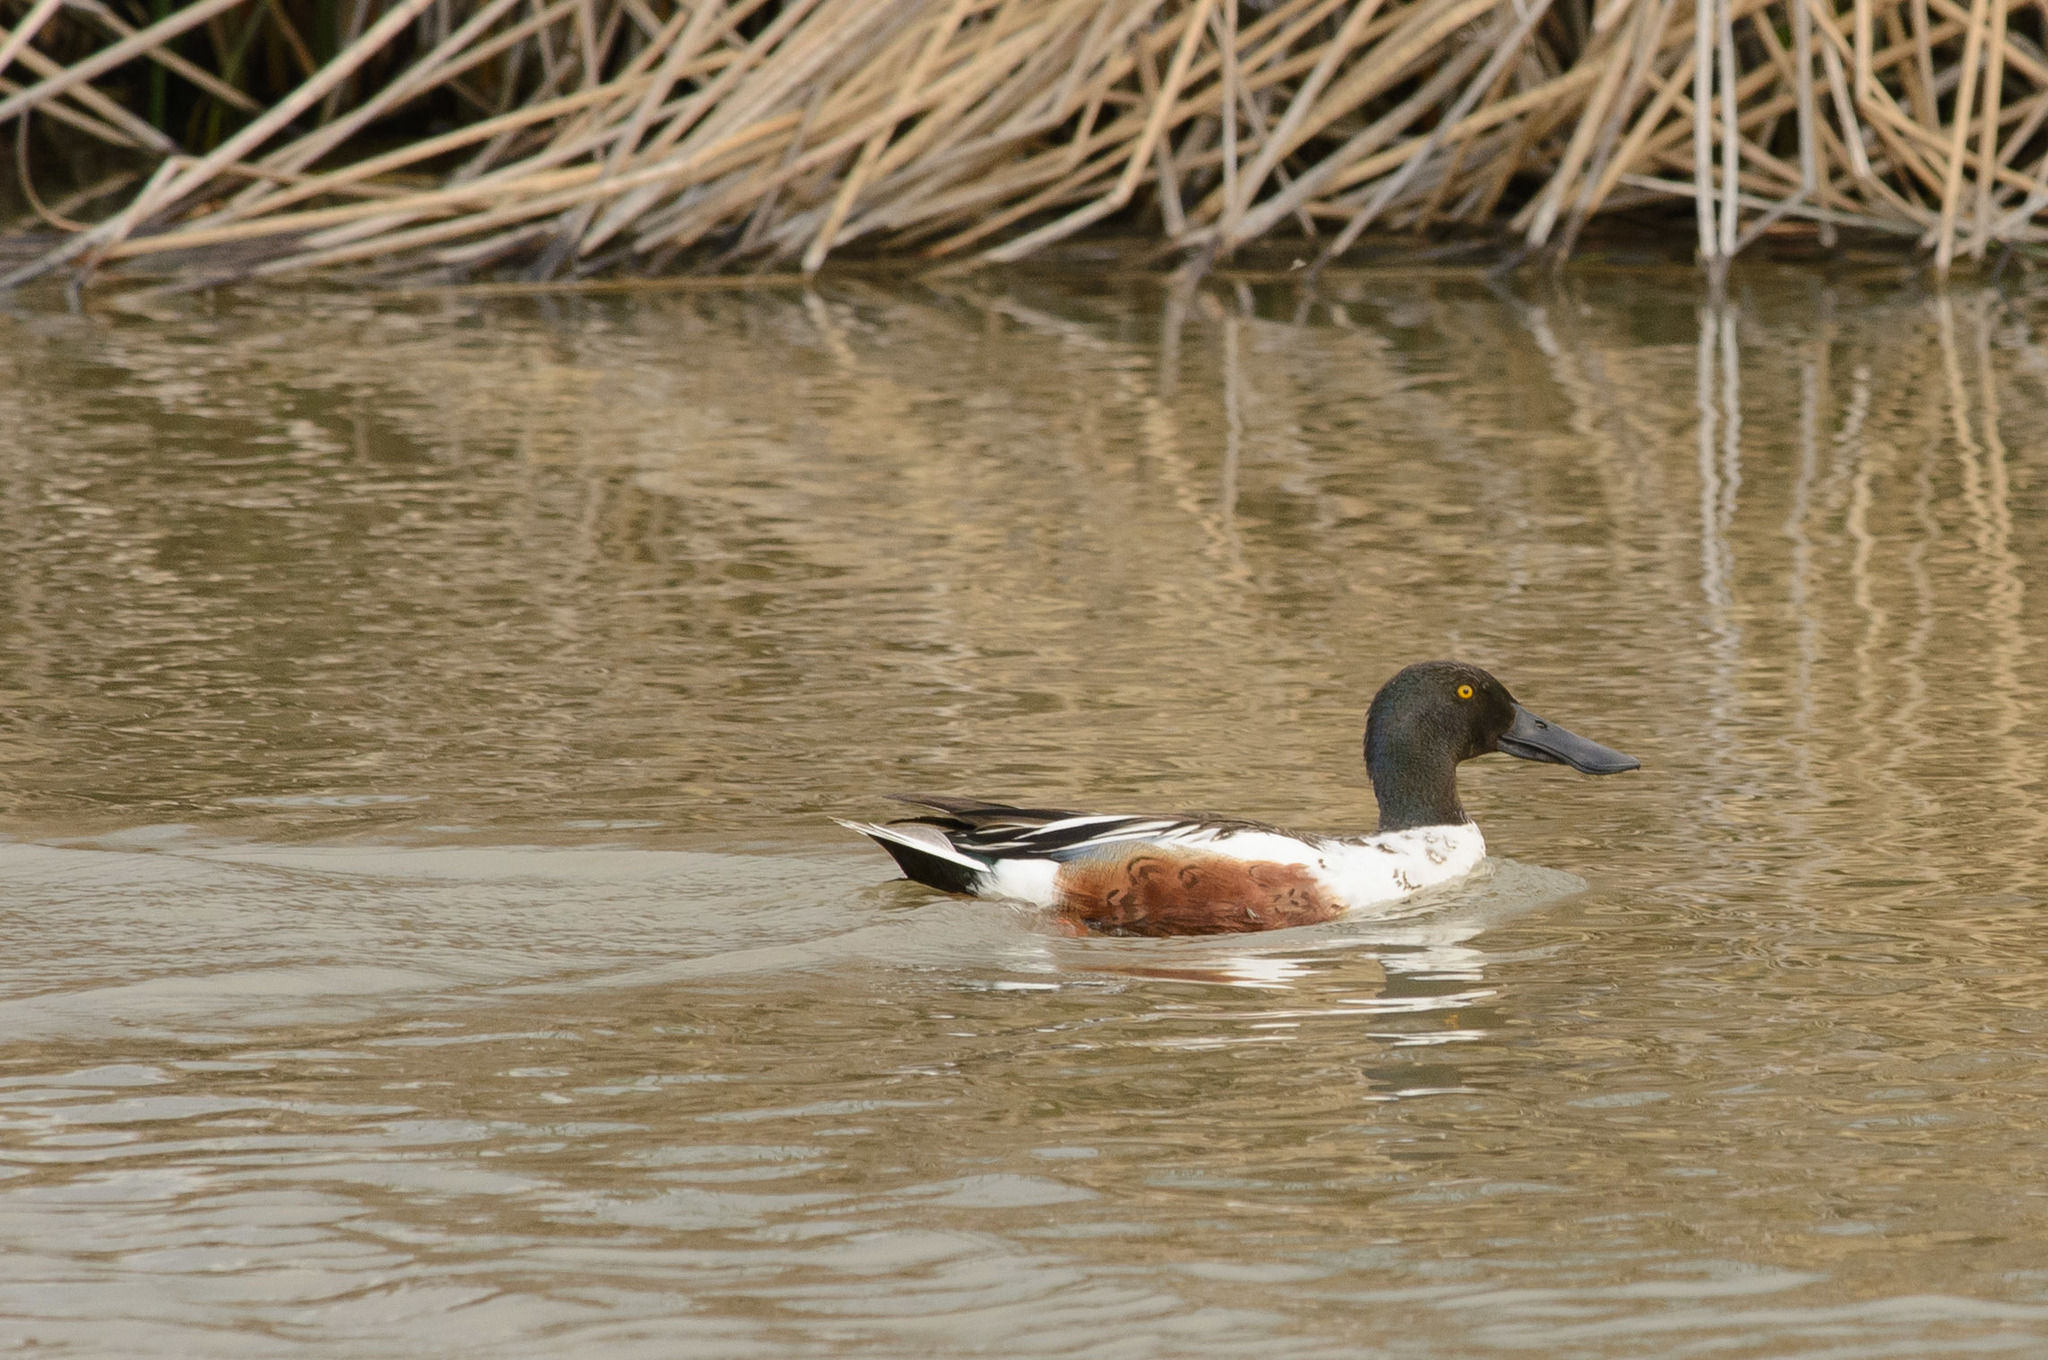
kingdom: Animalia
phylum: Chordata
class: Aves
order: Anseriformes
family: Anatidae
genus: Spatula
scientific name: Spatula clypeata
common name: Northern shoveler
